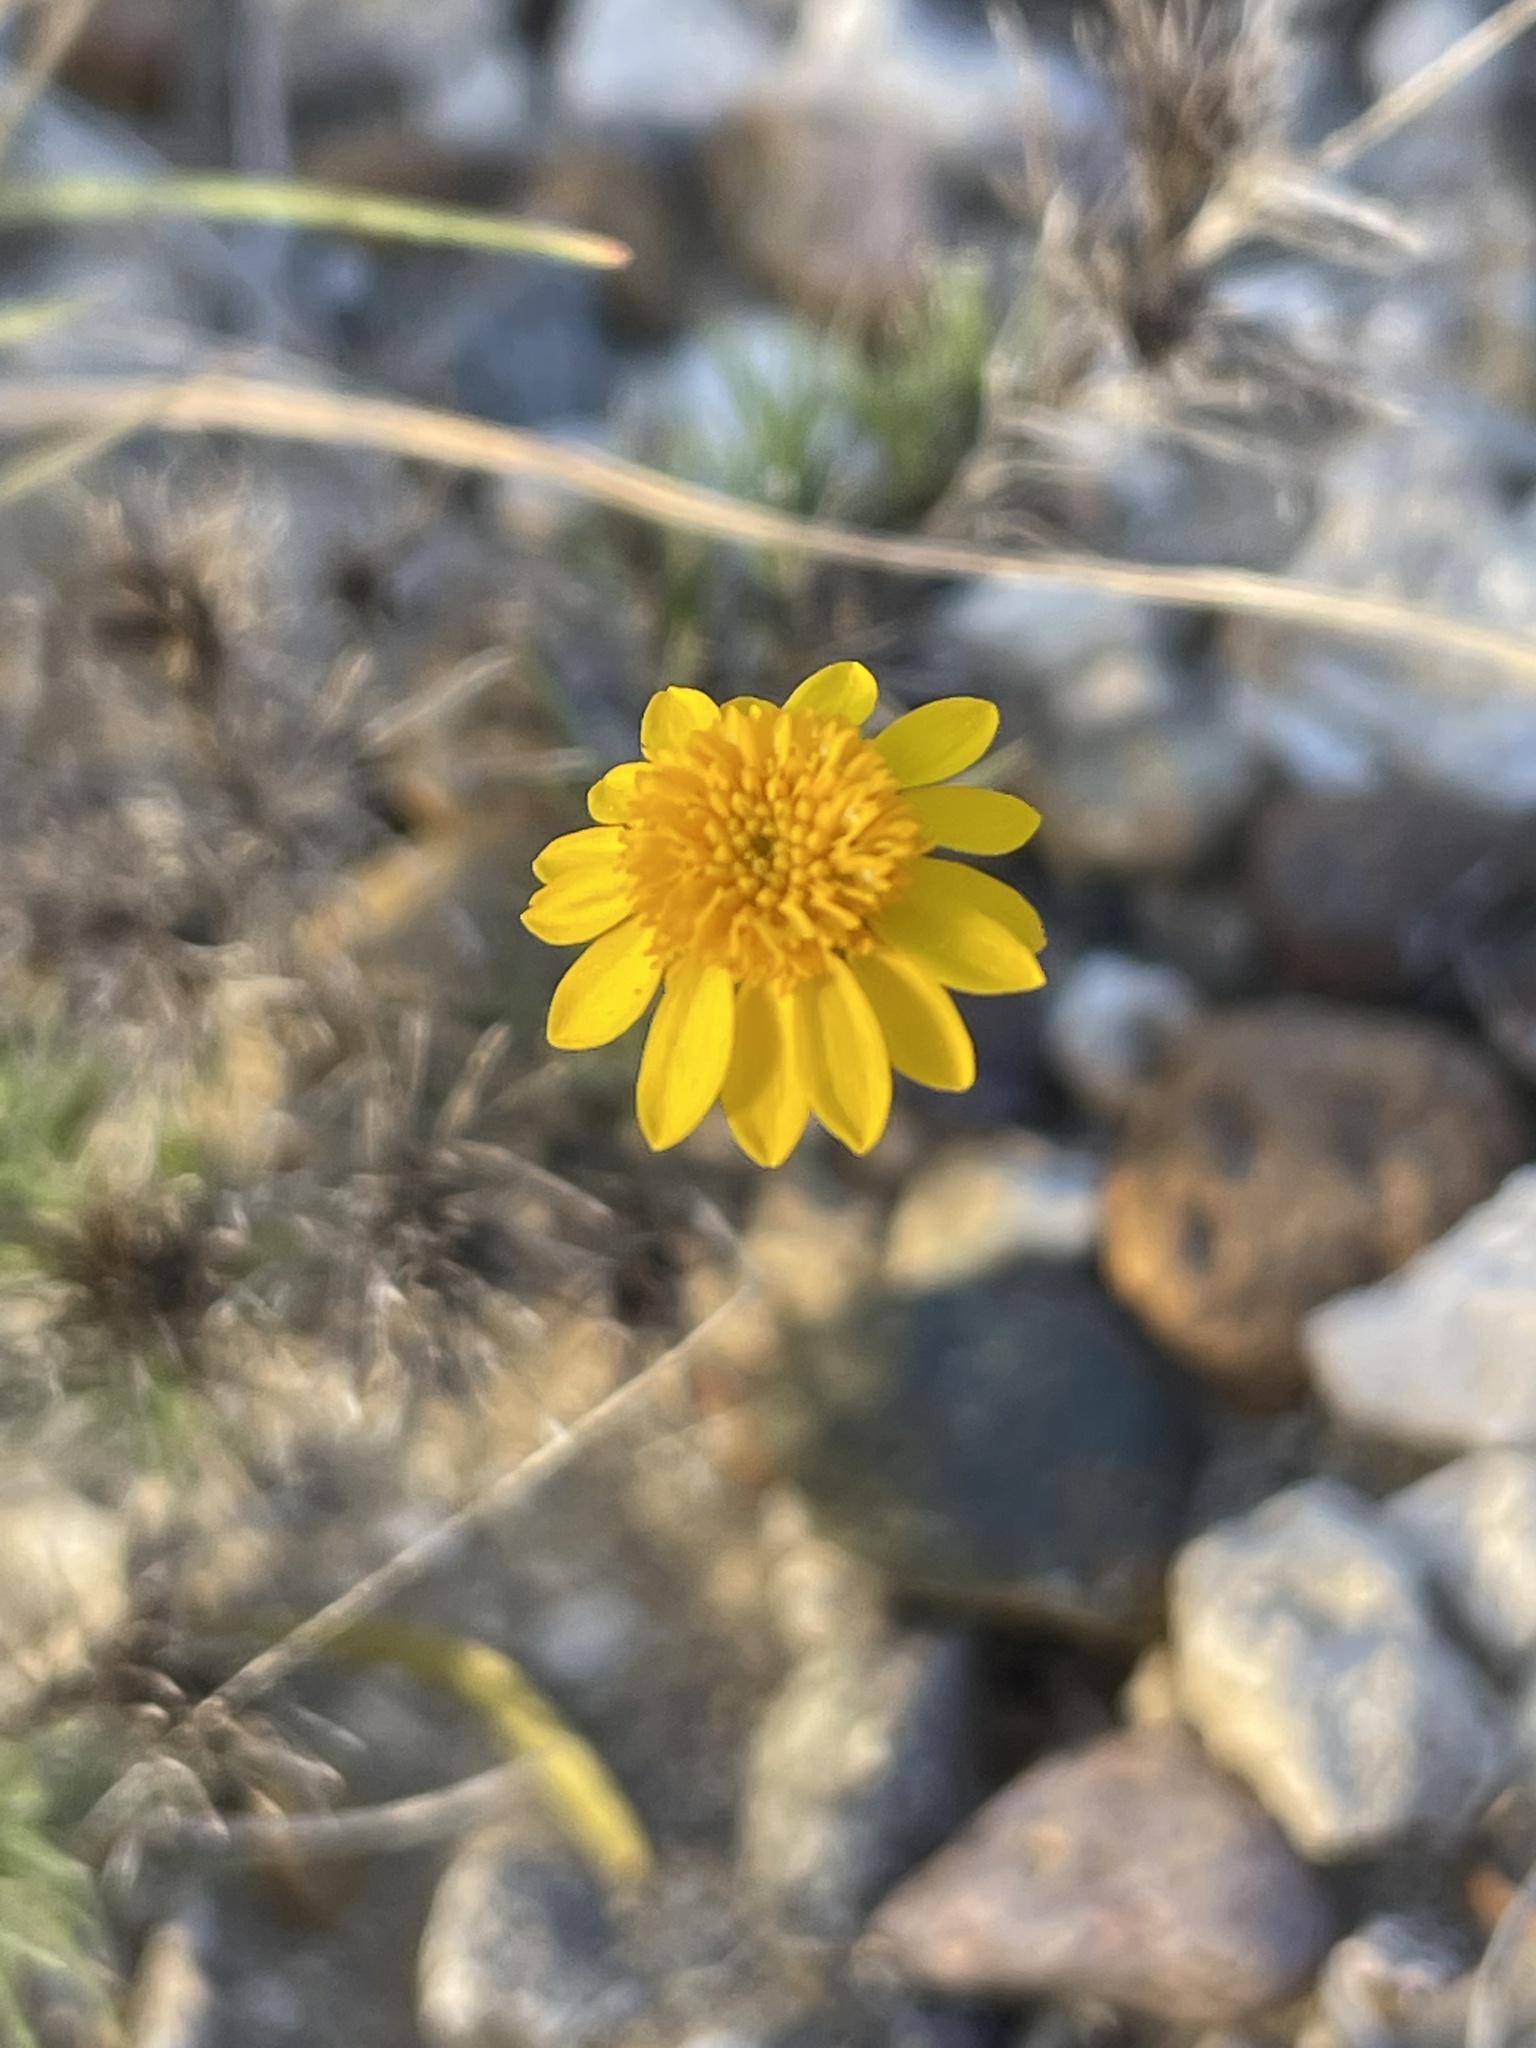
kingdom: Plantae
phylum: Tracheophyta
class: Magnoliopsida
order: Asterales
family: Asteraceae
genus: Thymophylla
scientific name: Thymophylla pentachaeta
